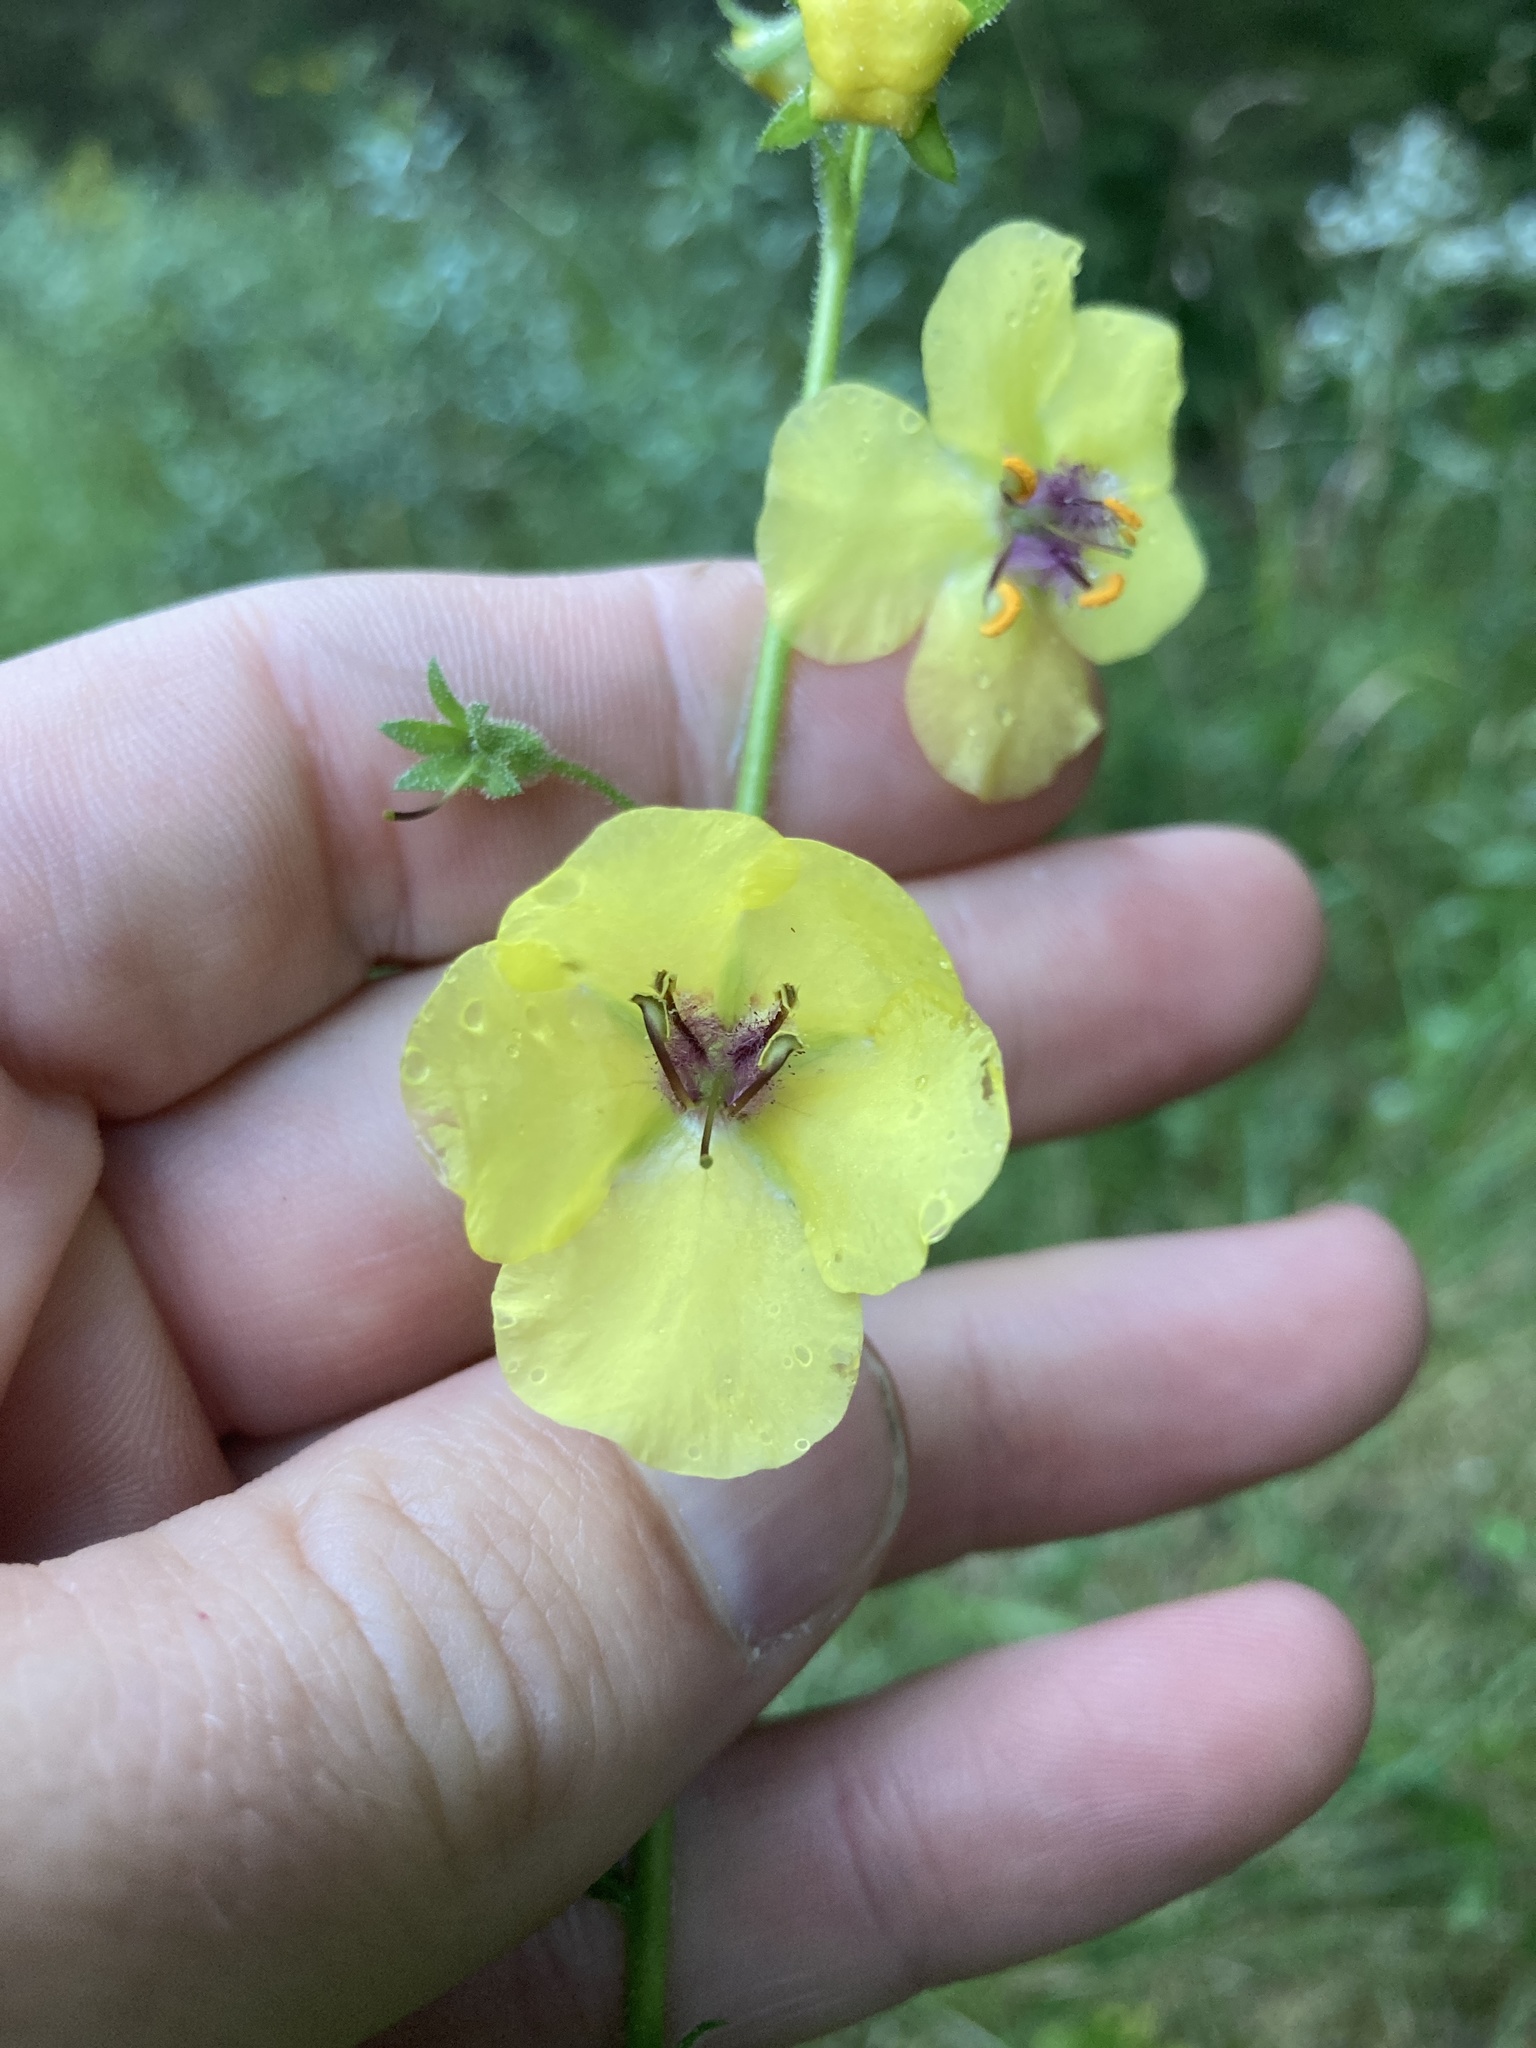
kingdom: Plantae
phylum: Tracheophyta
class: Magnoliopsida
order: Lamiales
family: Scrophulariaceae
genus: Verbascum
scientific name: Verbascum blattaria
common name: Moth mullein
